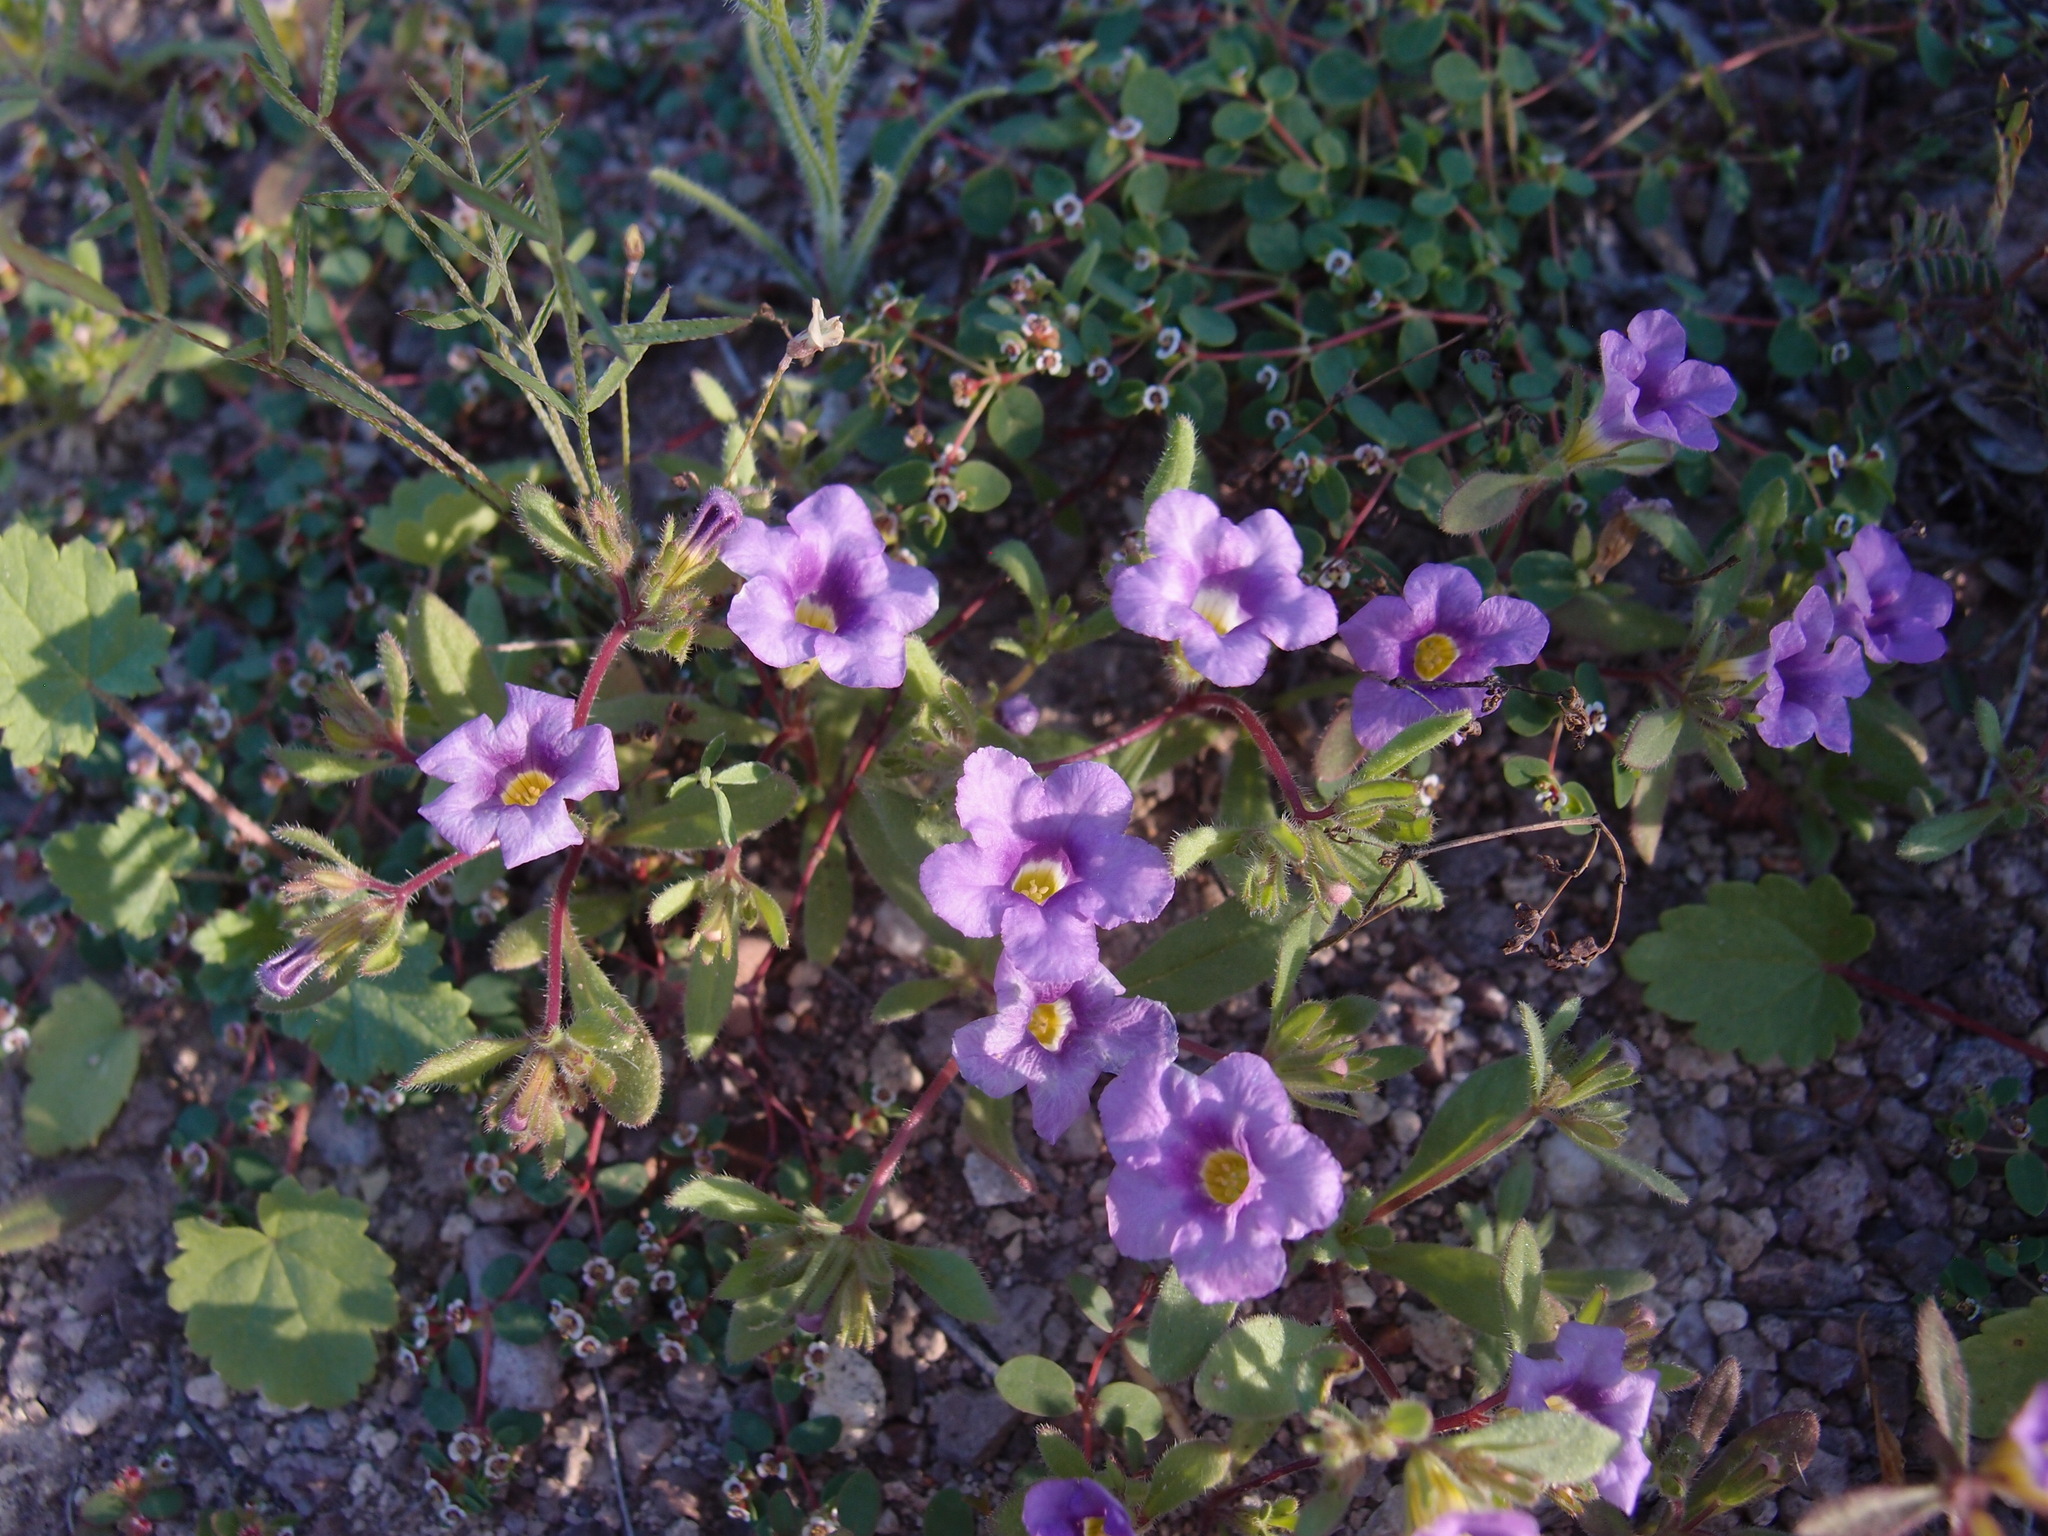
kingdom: Plantae
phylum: Tracheophyta
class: Magnoliopsida
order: Boraginales
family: Namaceae
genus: Nama
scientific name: Nama hispida
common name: Bristly nama
